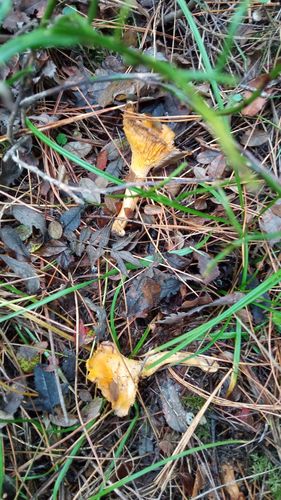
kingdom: Fungi
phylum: Basidiomycota
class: Agaricomycetes
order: Cantharellales
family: Hydnaceae
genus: Cantharellus
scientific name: Cantharellus cibarius
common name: Chanterelle
